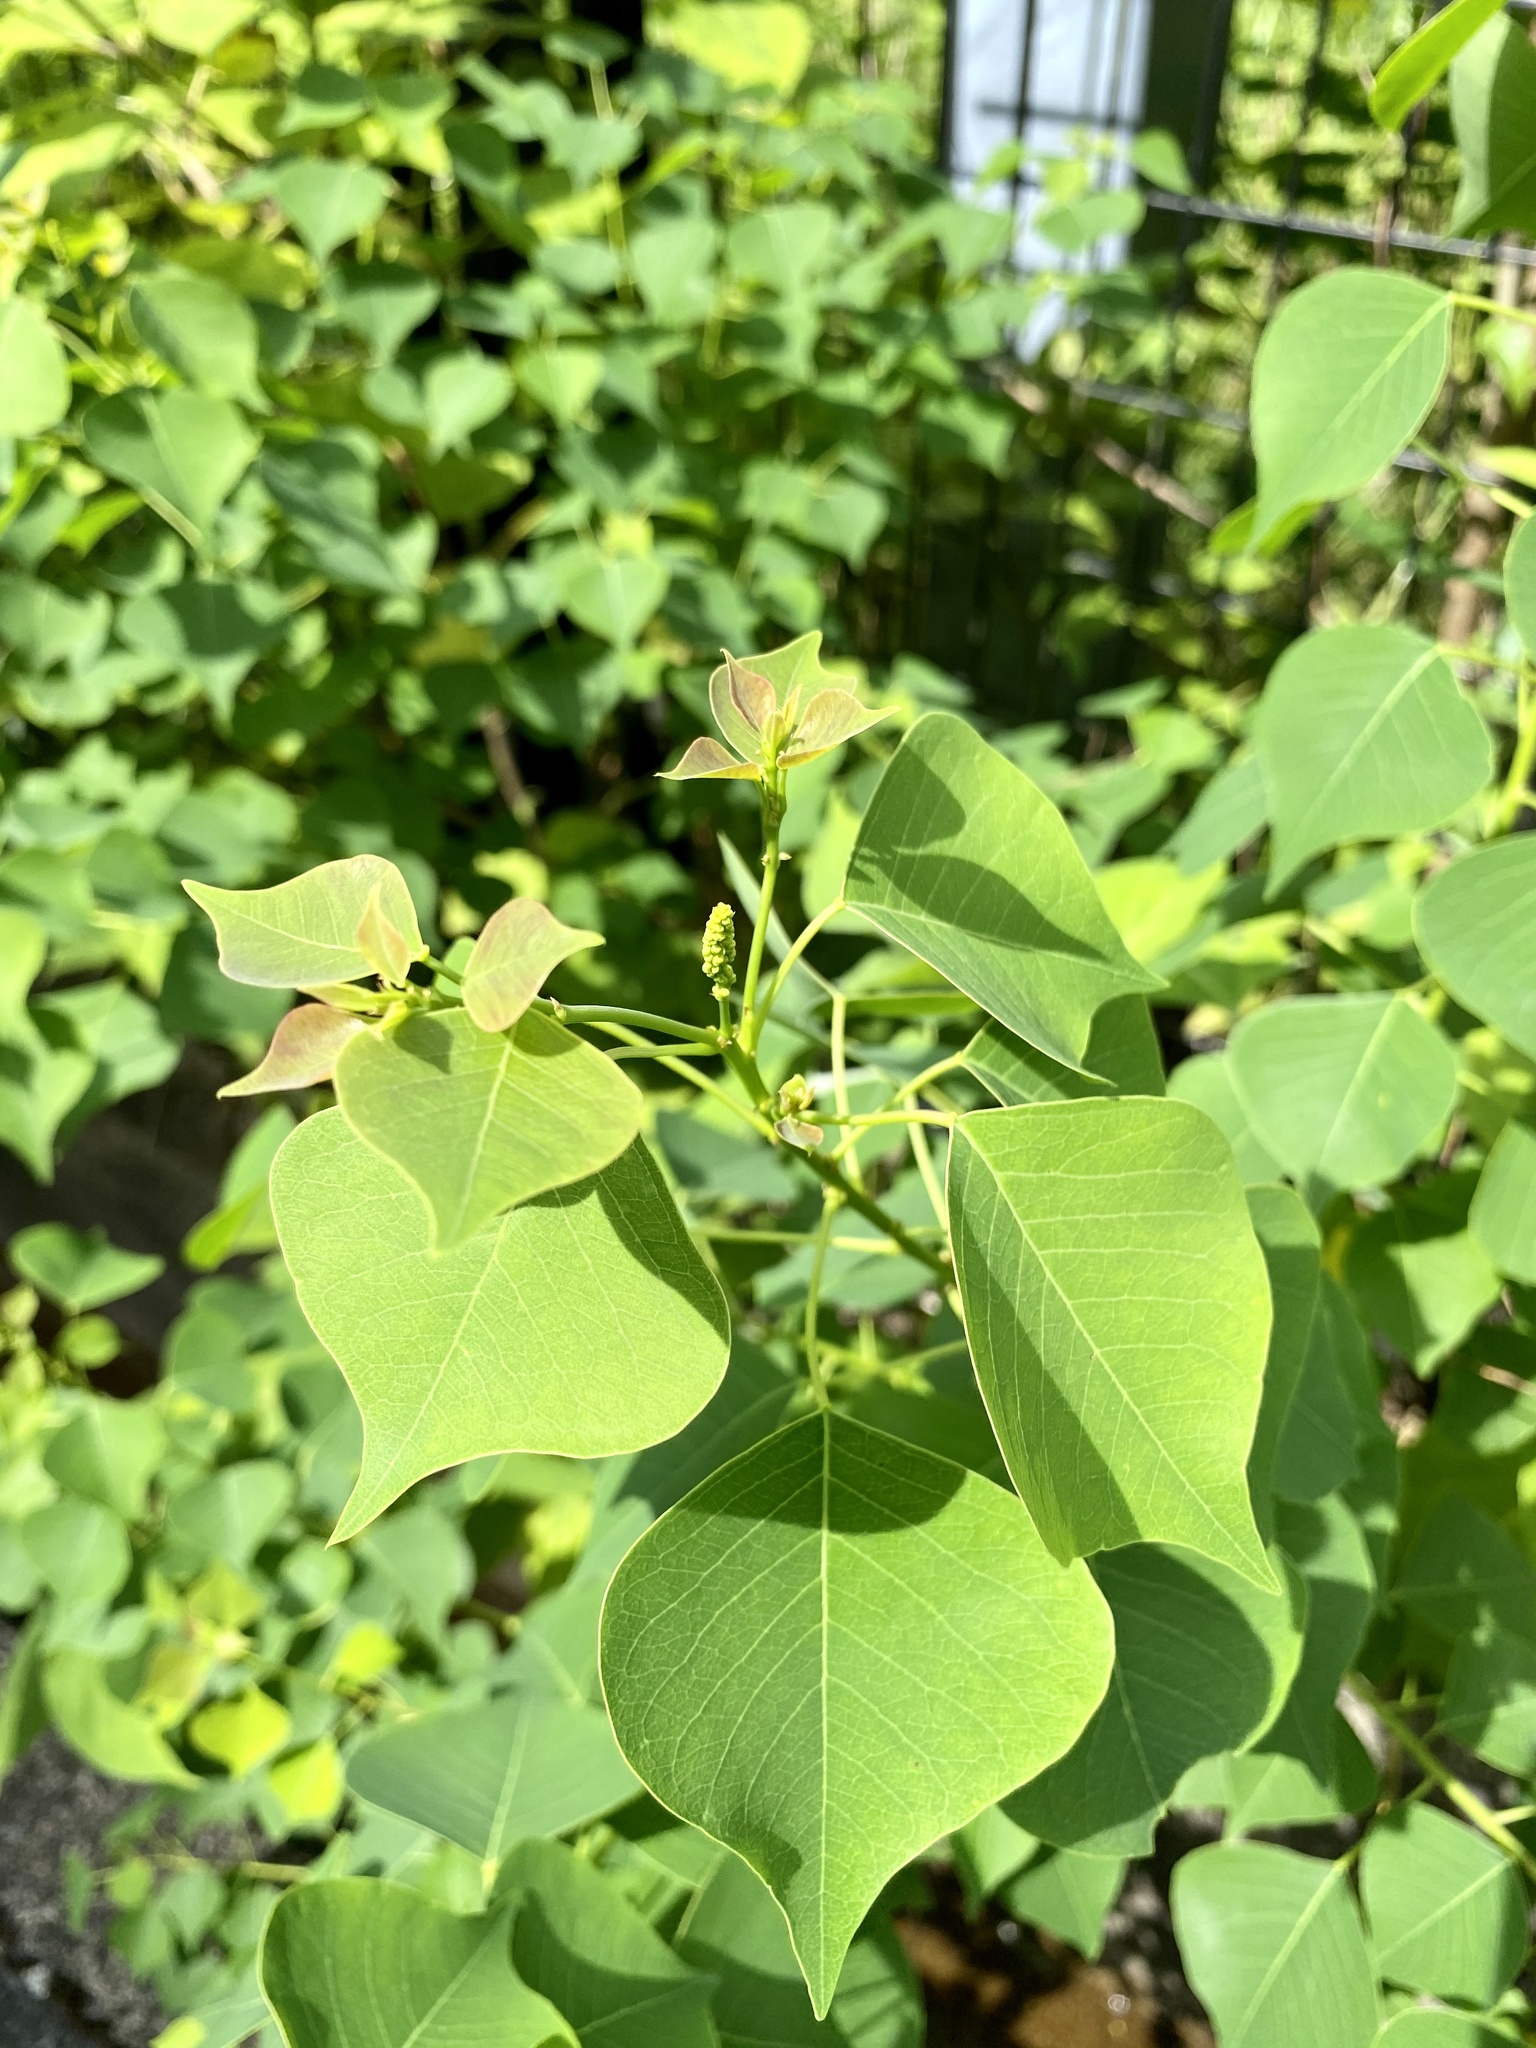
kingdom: Plantae
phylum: Tracheophyta
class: Magnoliopsida
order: Malpighiales
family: Euphorbiaceae
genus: Triadica
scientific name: Triadica sebifera
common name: Chinese tallow
